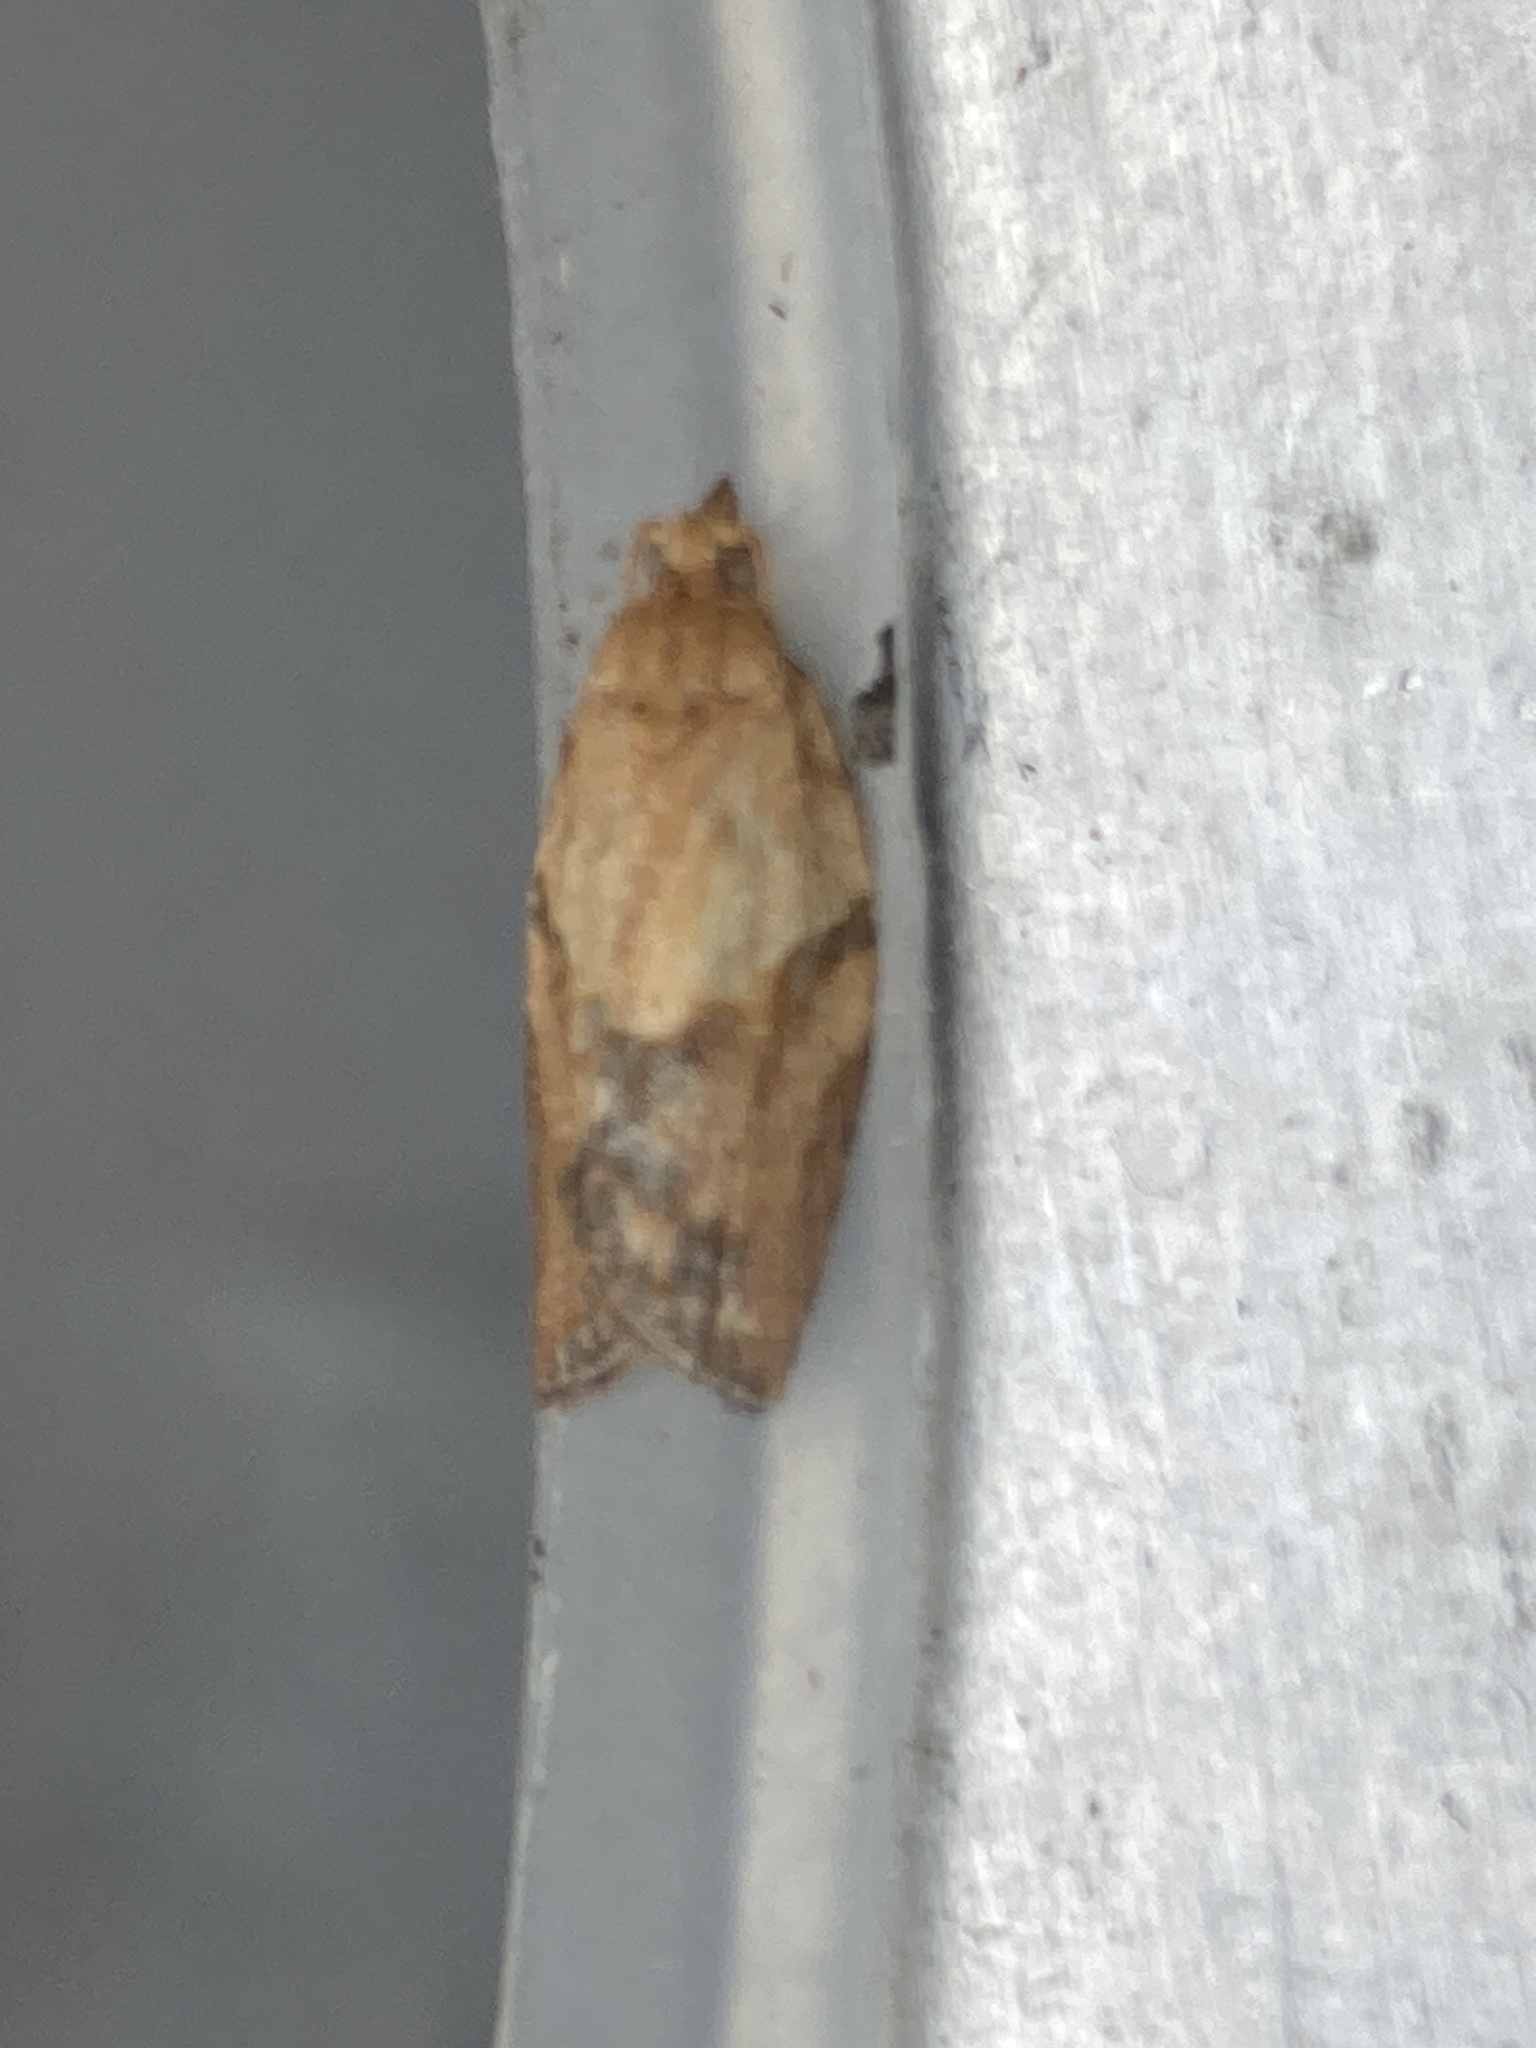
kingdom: Animalia
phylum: Arthropoda
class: Insecta
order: Lepidoptera
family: Tortricidae
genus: Epiphyas
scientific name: Epiphyas postvittana
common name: Light brown apple moth
